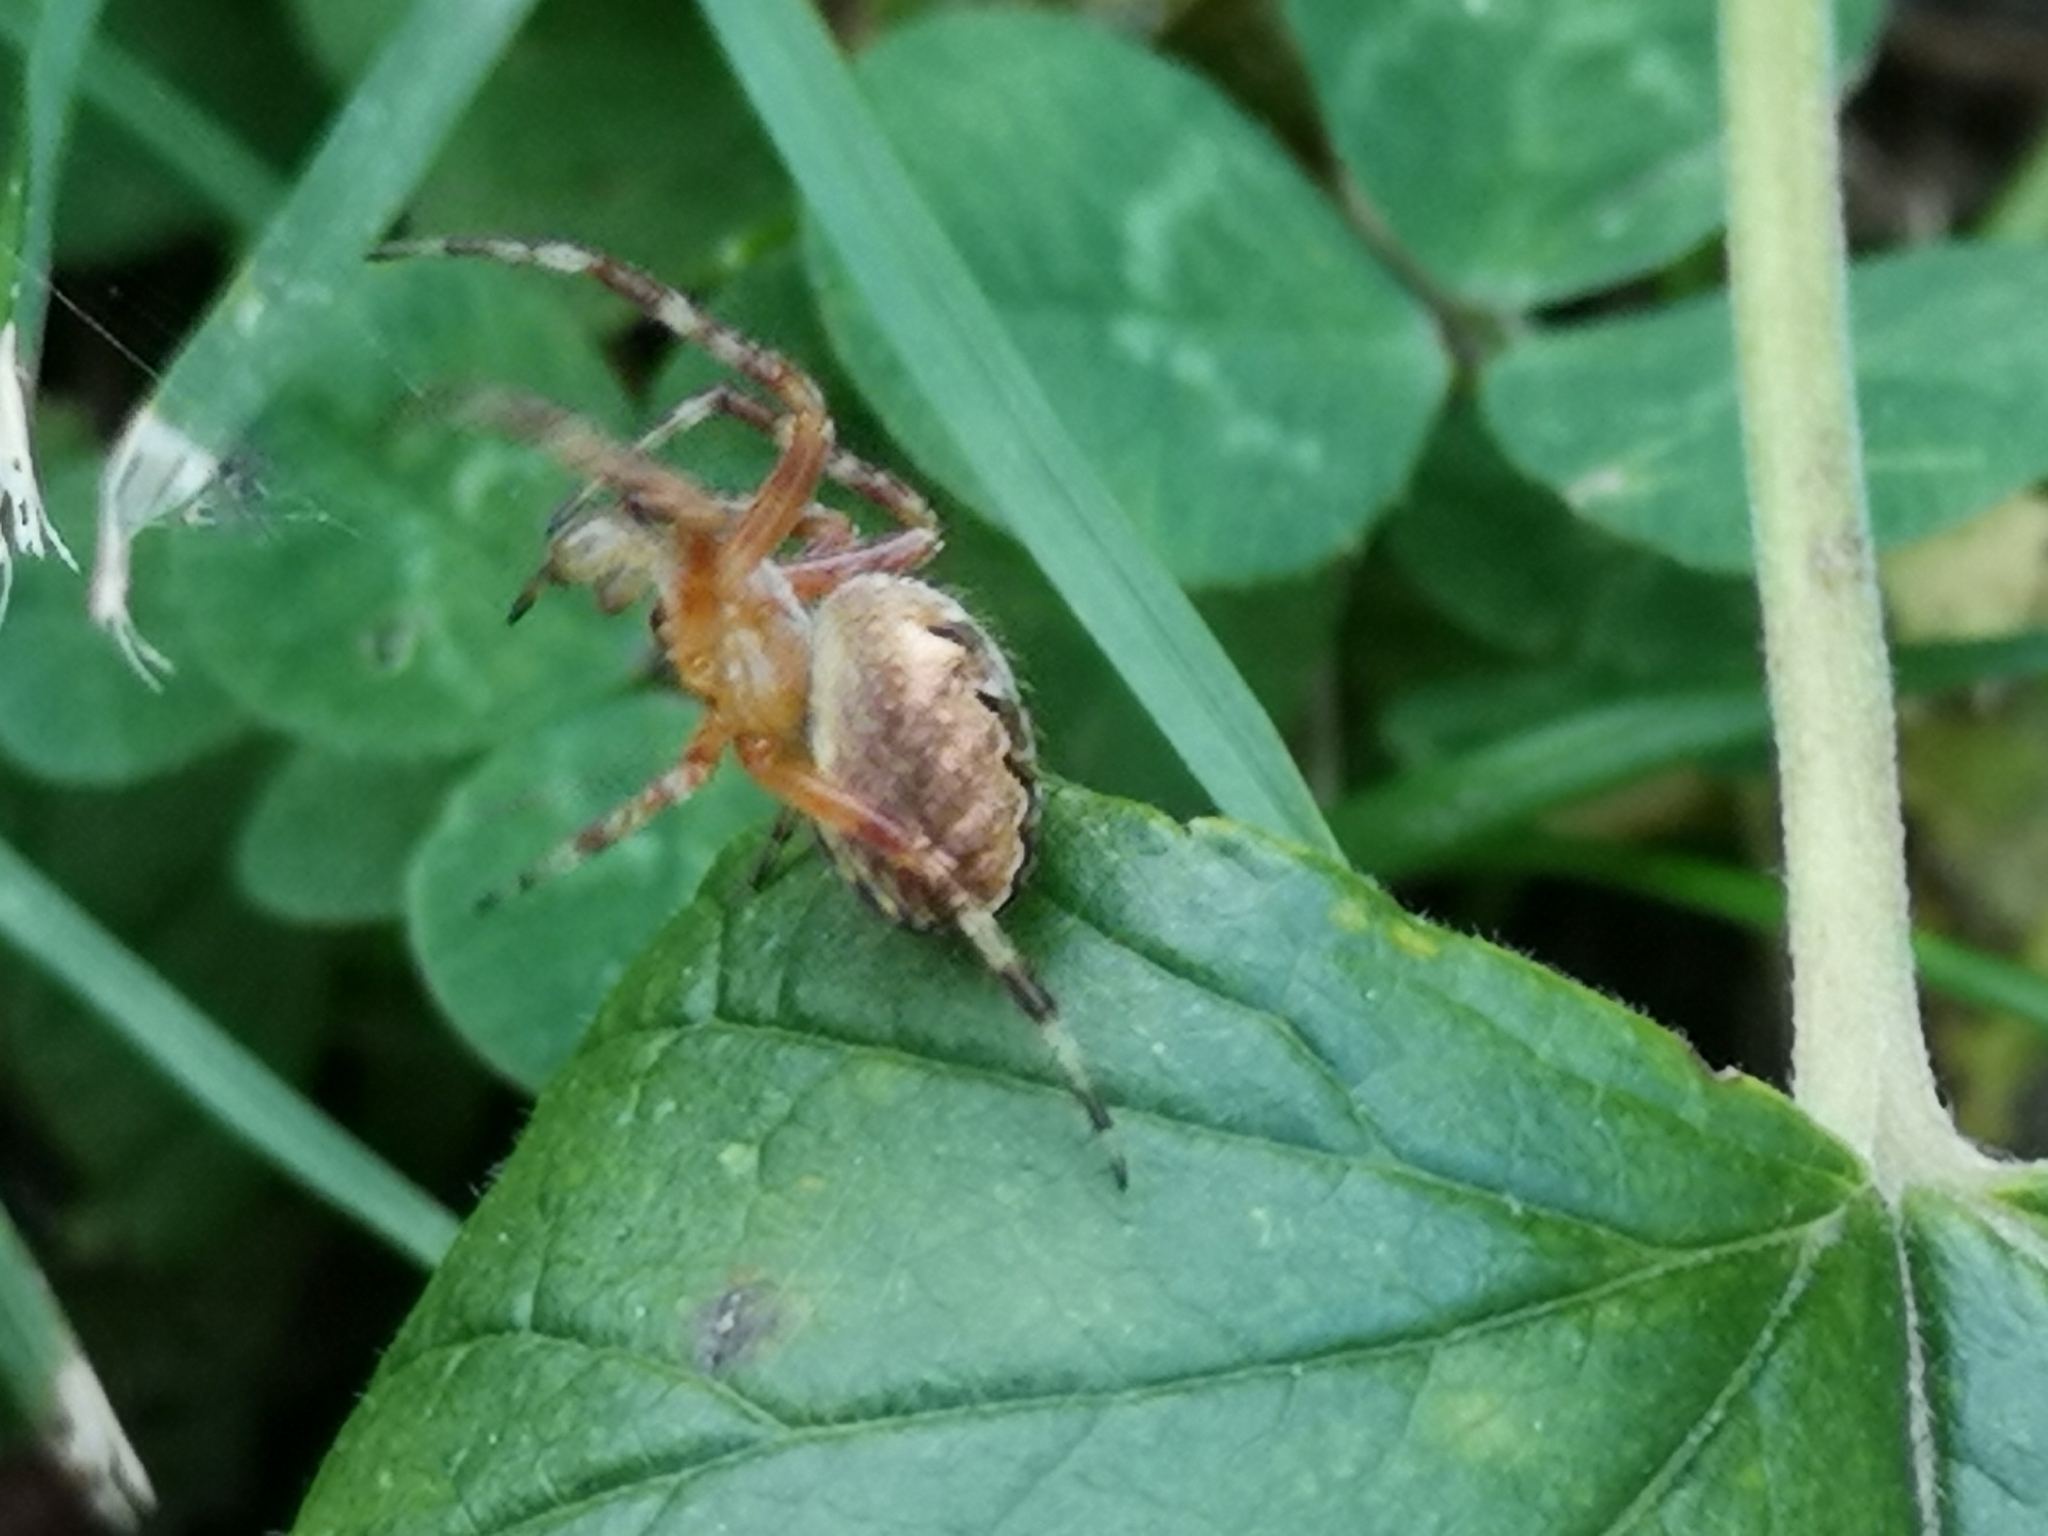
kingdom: Animalia
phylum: Arthropoda
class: Arachnida
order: Araneae
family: Araneidae
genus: Araneus
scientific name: Araneus diadematus
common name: Cross orbweaver
